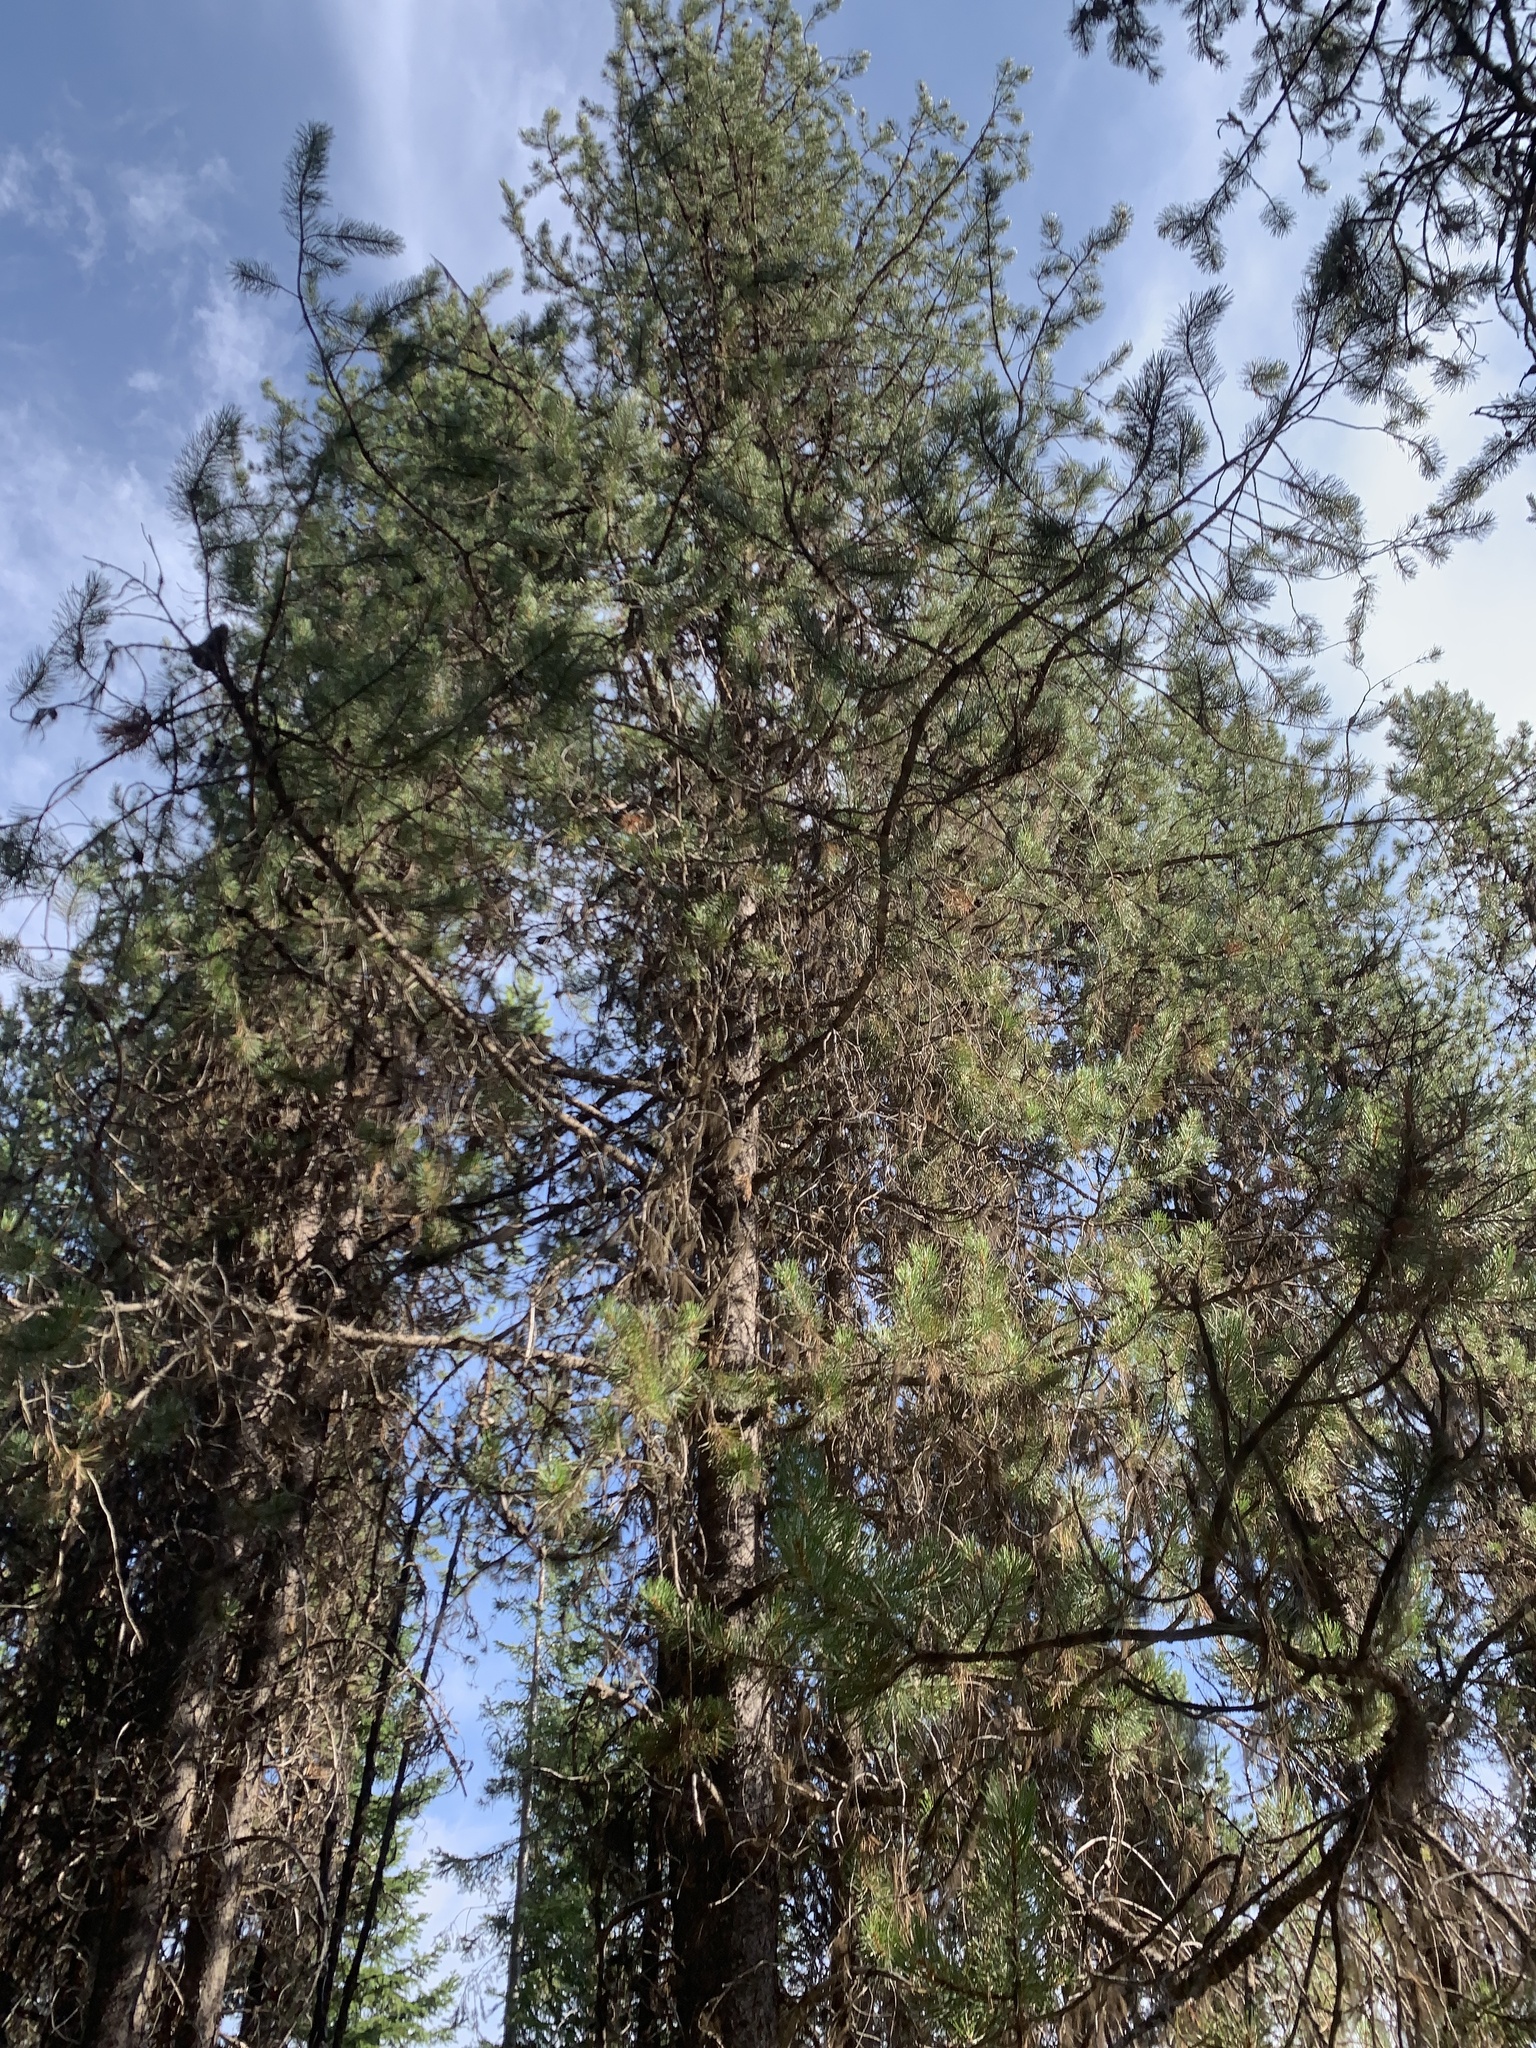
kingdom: Plantae
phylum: Tracheophyta
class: Pinopsida
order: Pinales
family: Pinaceae
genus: Abies
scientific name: Abies grandis
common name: Giant fir
